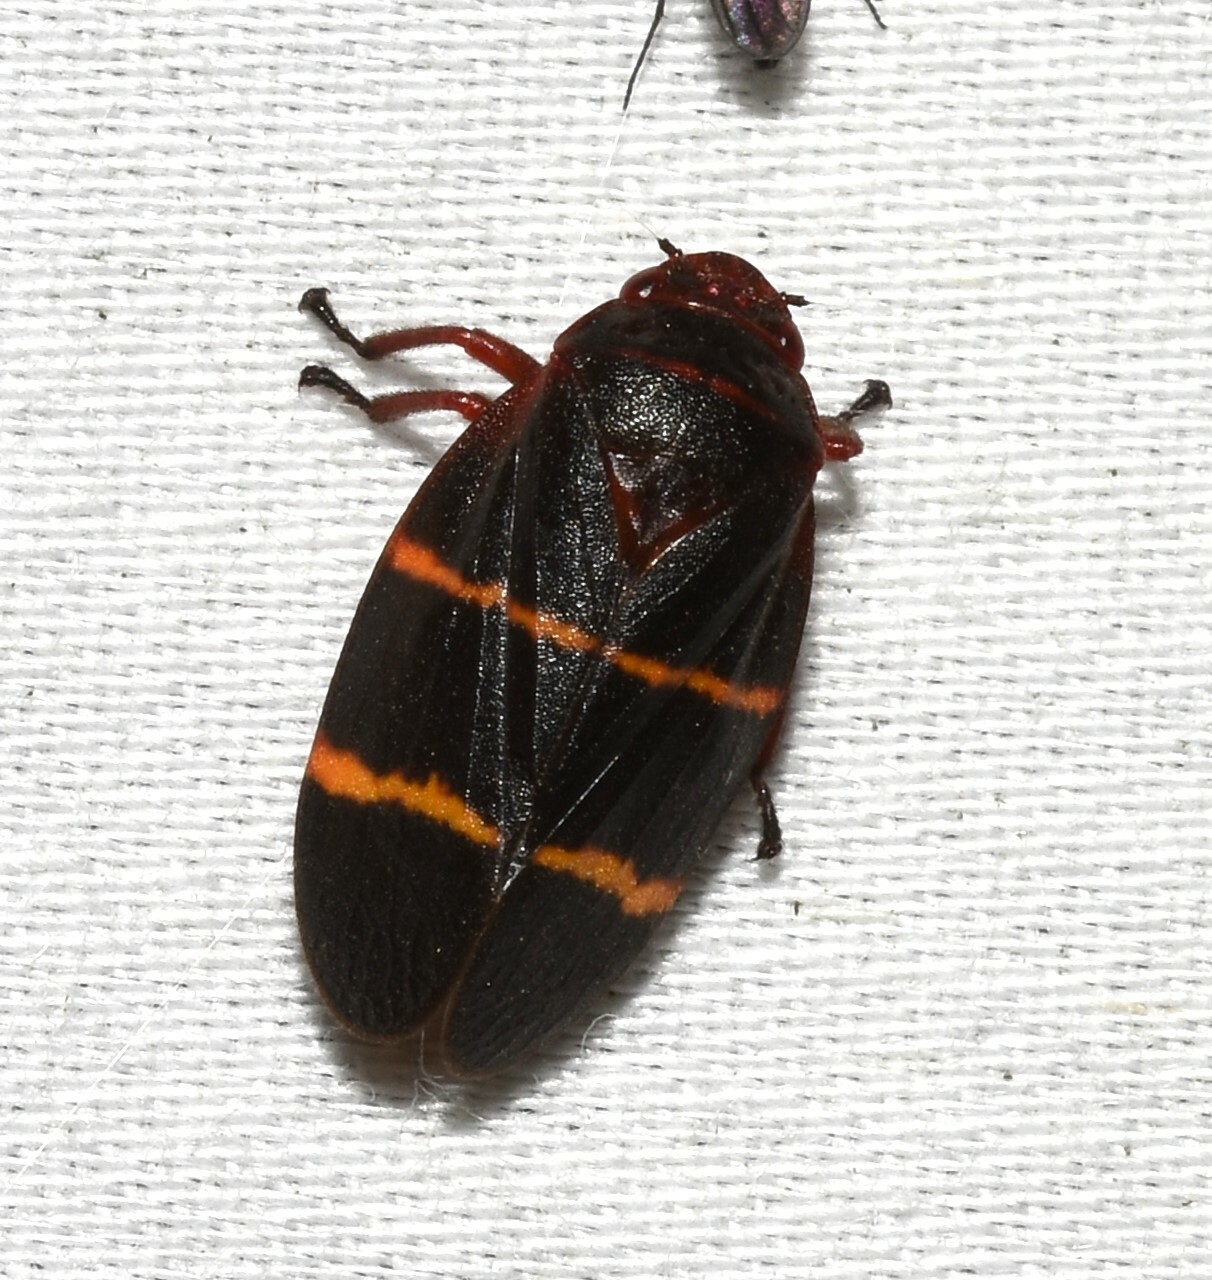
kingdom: Animalia
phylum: Arthropoda
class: Insecta
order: Hemiptera
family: Cercopidae
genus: Prosapia
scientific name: Prosapia bicincta
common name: Twolined spittlebug
